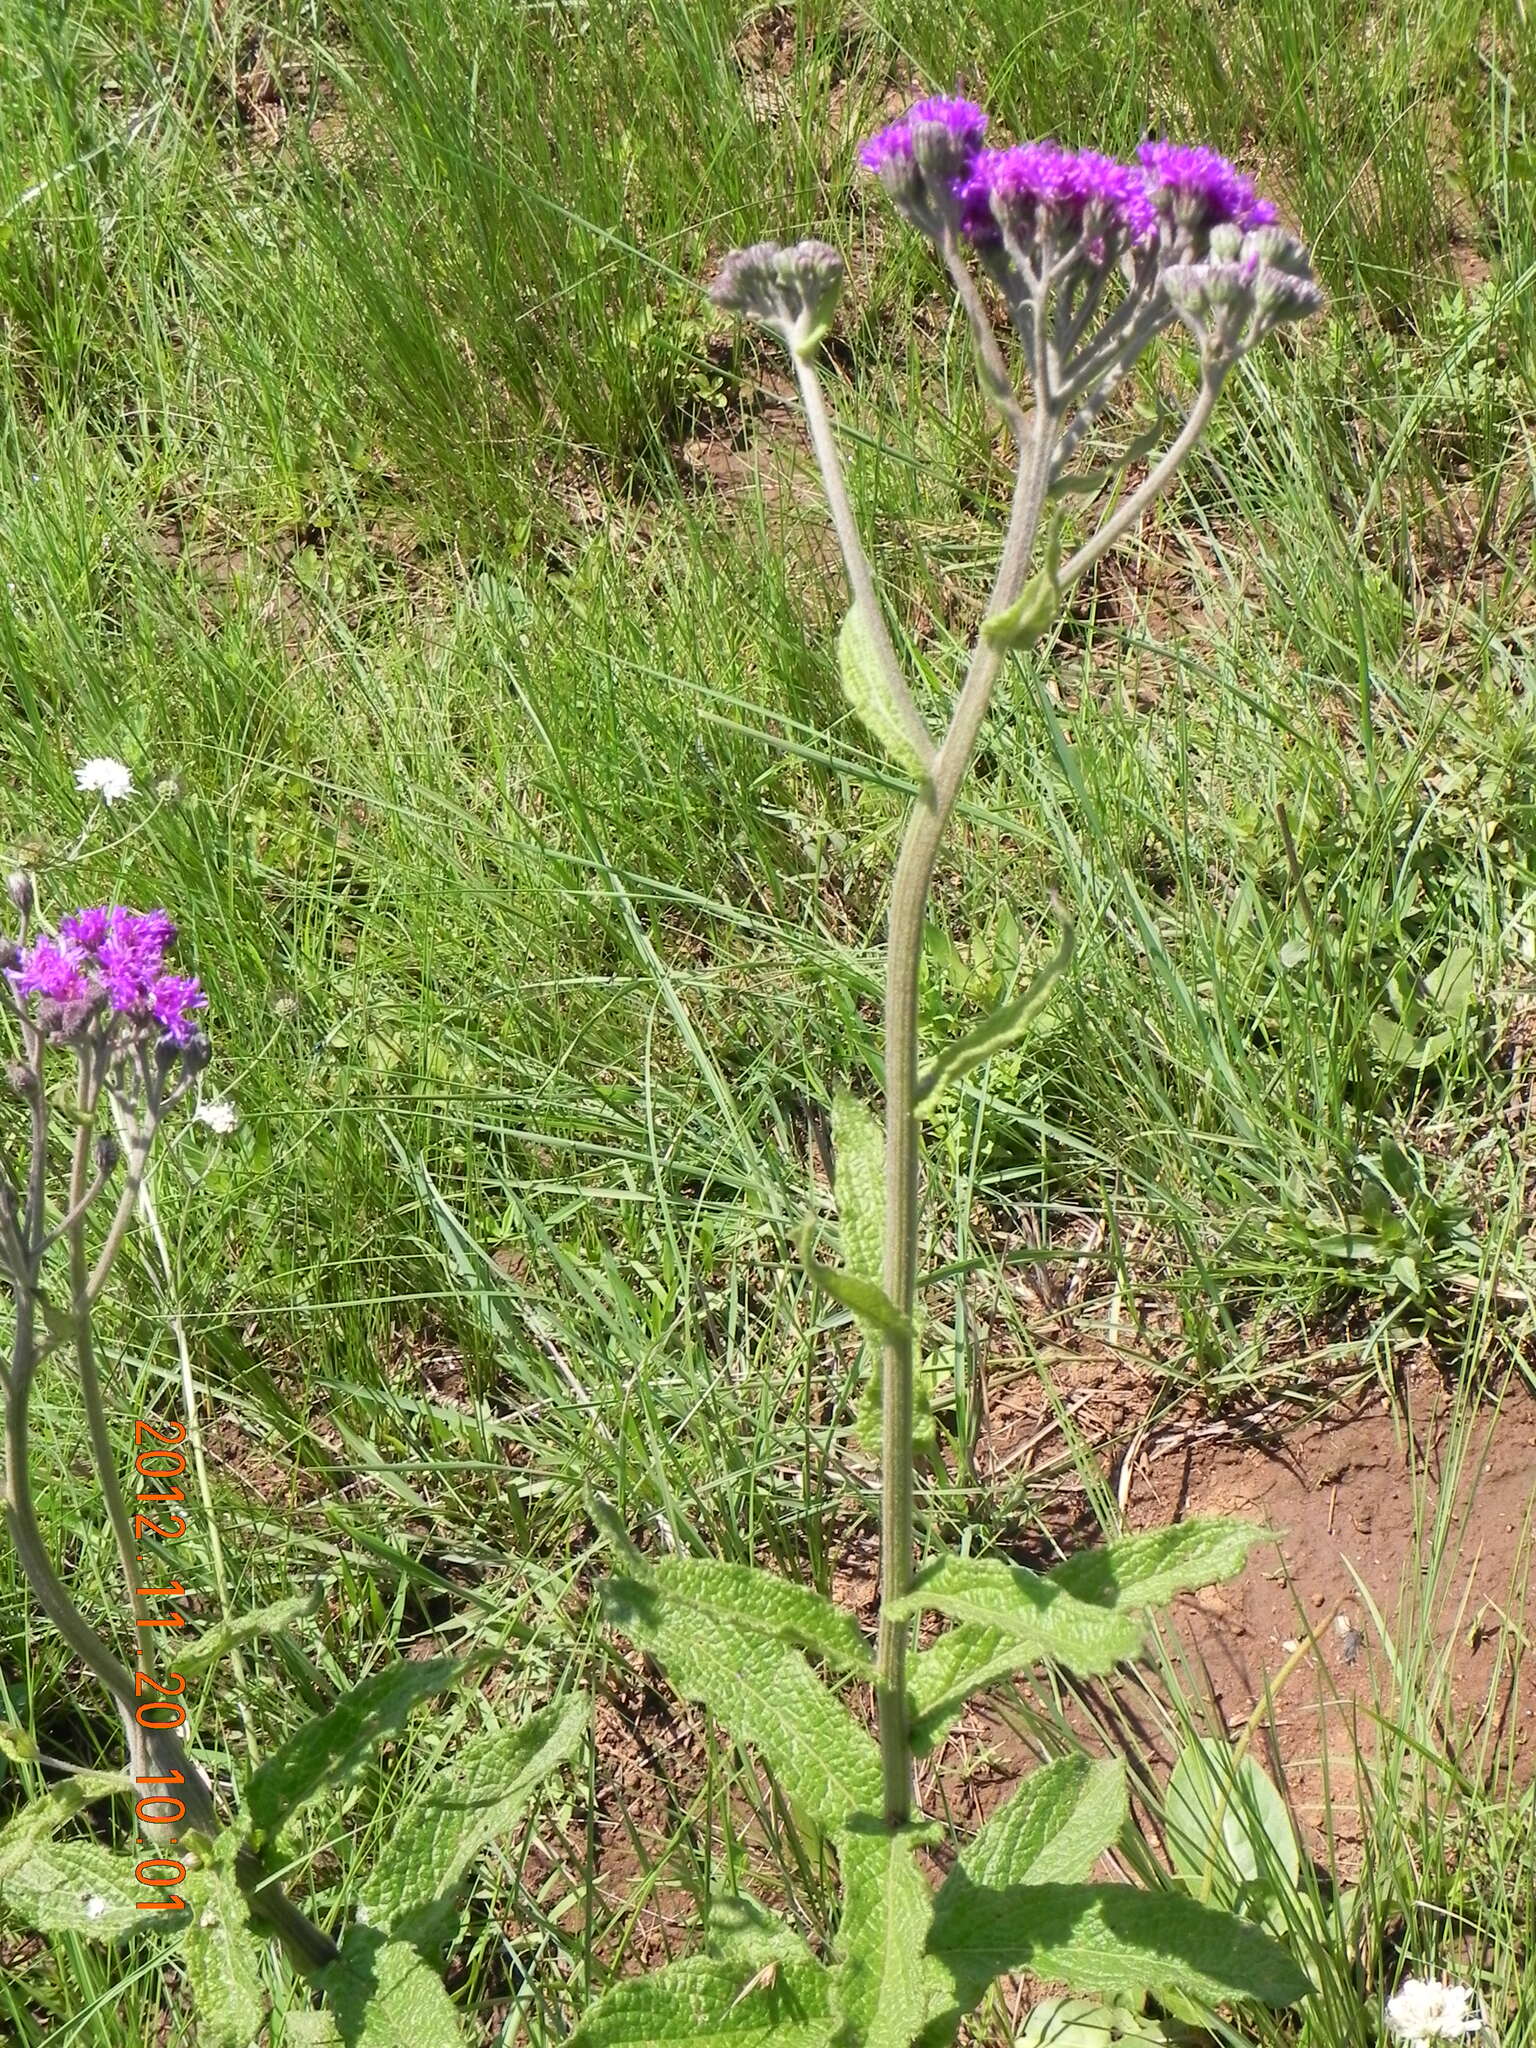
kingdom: Plantae
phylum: Tracheophyta
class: Magnoliopsida
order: Asterales
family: Asteraceae
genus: Hilliardiella
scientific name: Hilliardiella hirsuta
